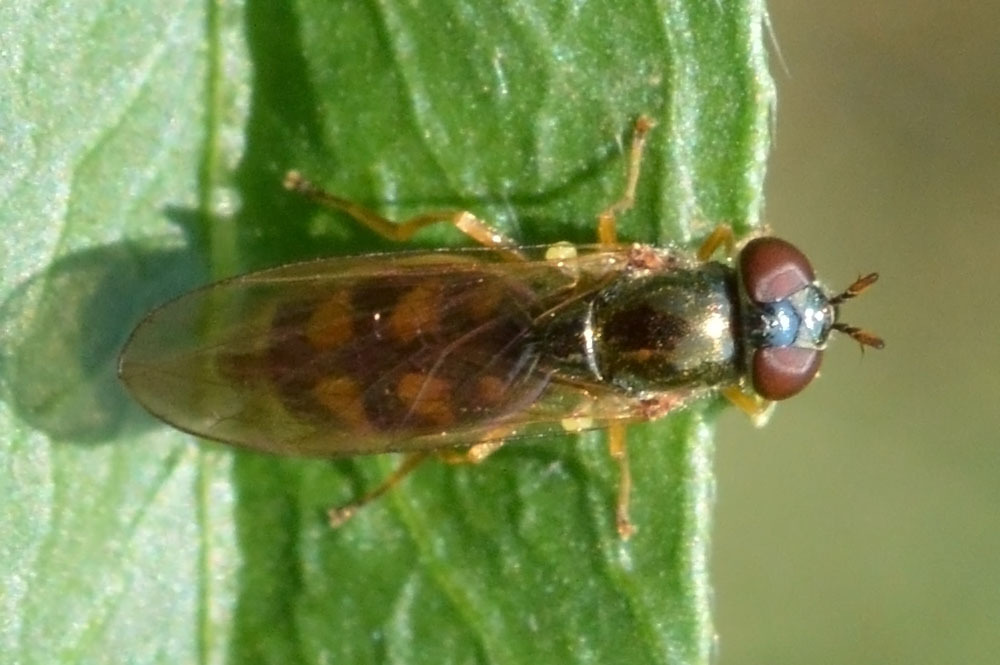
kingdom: Animalia
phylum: Arthropoda
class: Insecta
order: Diptera
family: Syrphidae
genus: Melanostoma
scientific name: Melanostoma scalare
